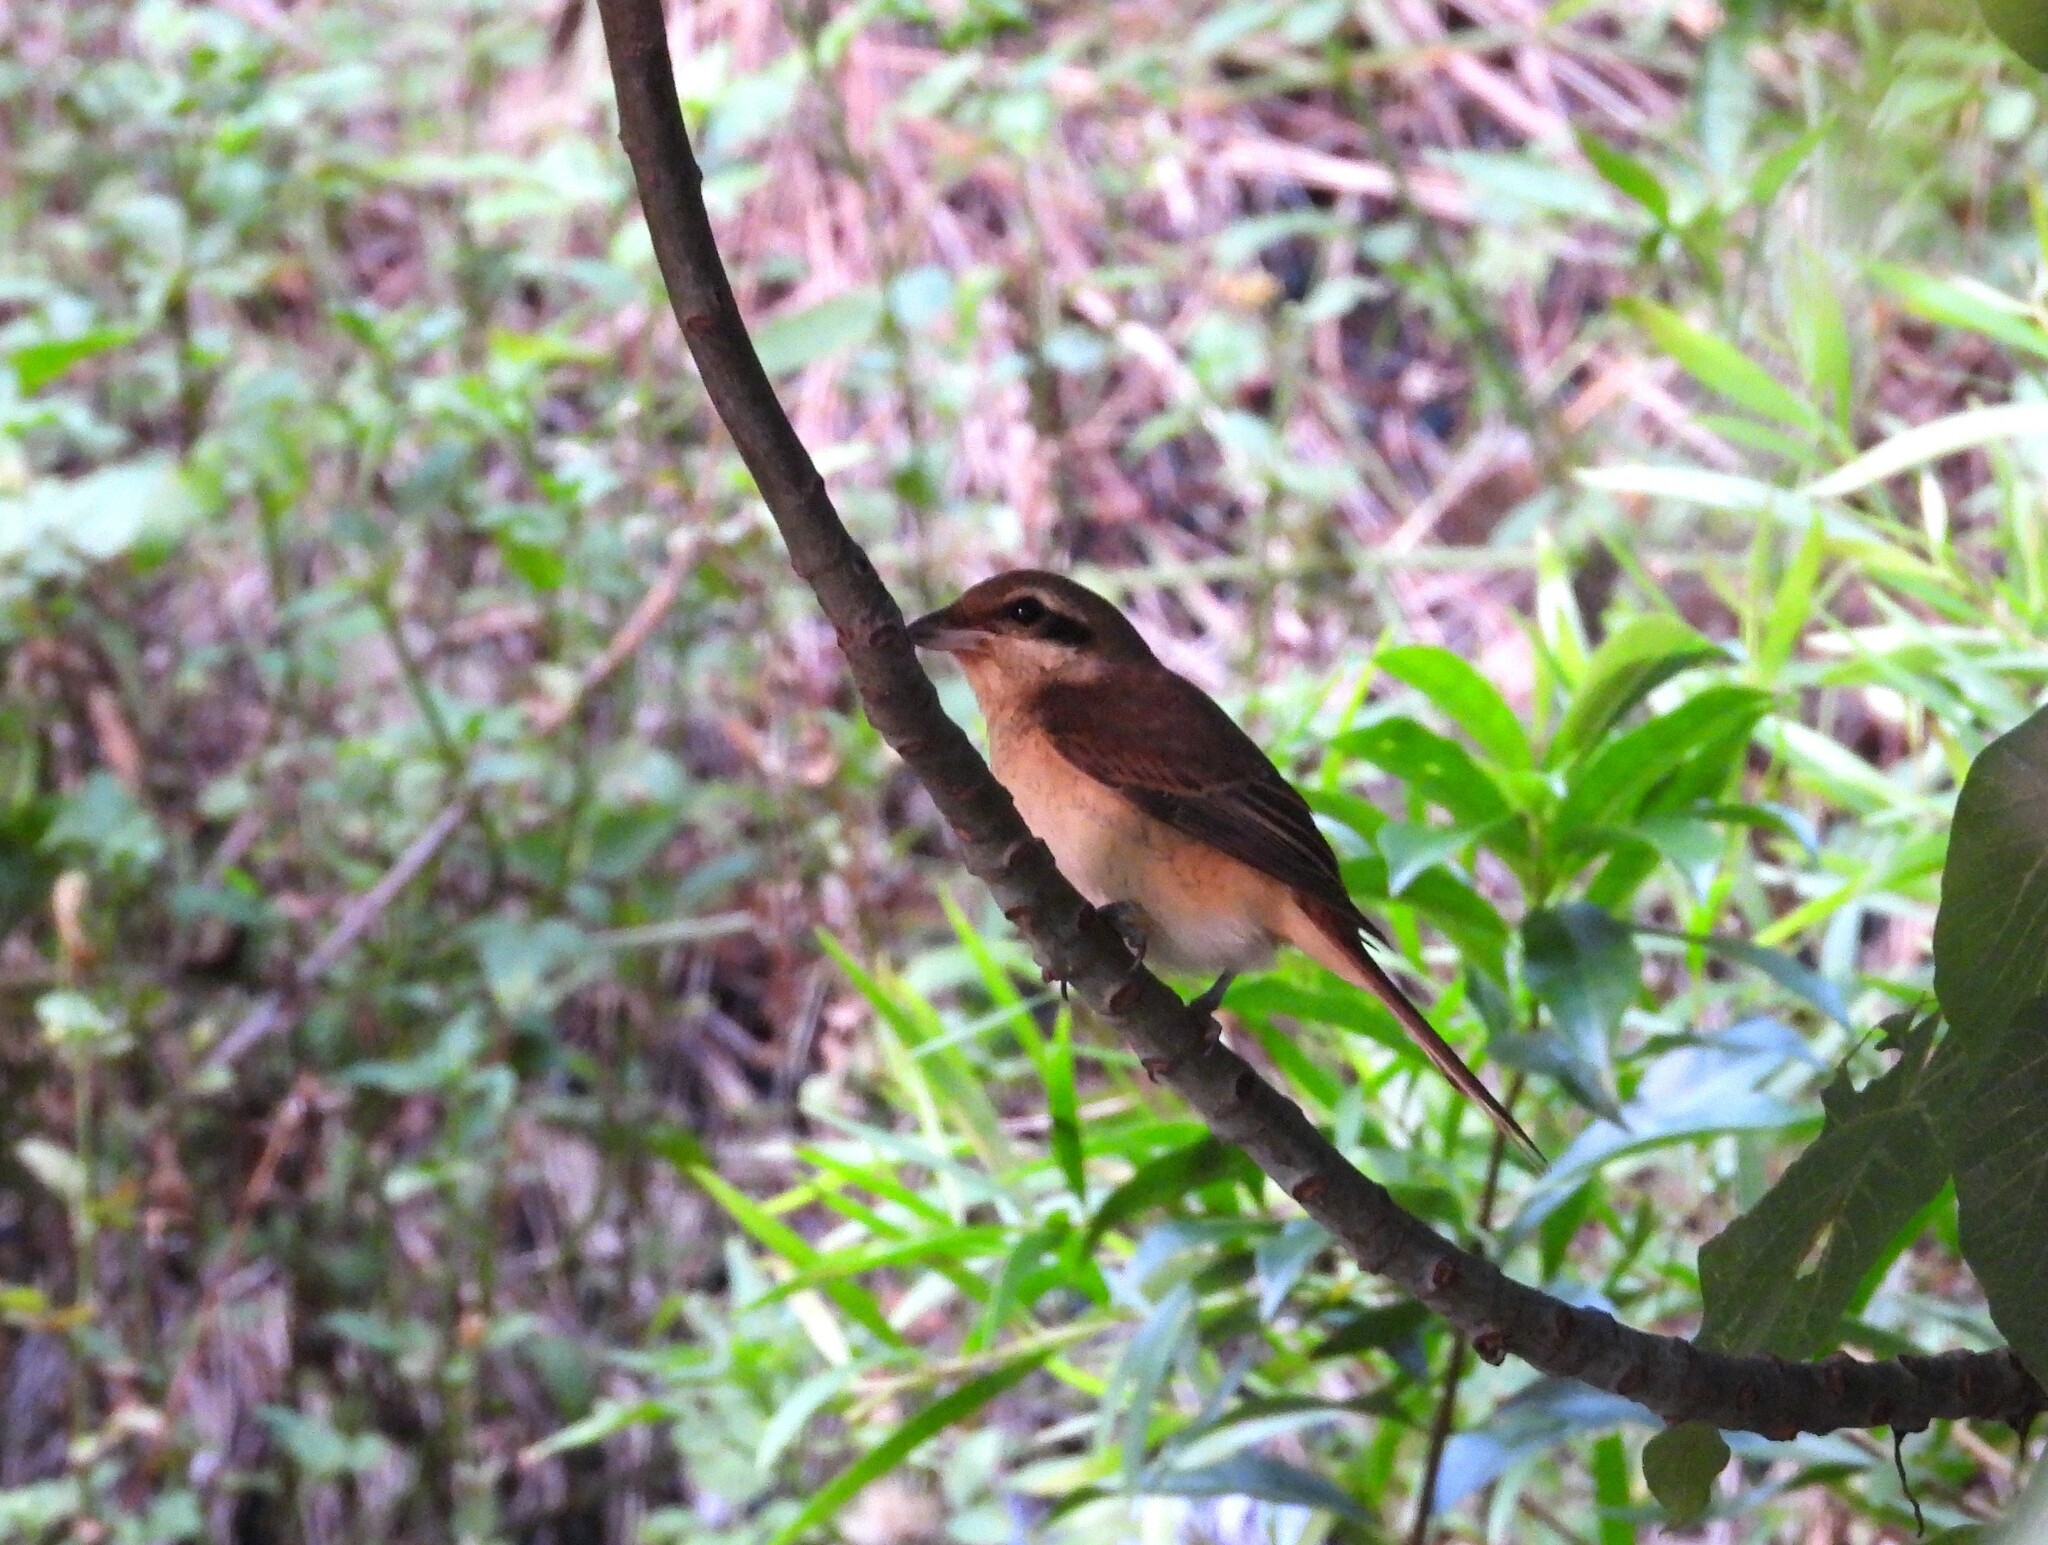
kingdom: Animalia
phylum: Chordata
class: Aves
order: Passeriformes
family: Laniidae
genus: Lanius
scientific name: Lanius cristatus
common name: Brown shrike
